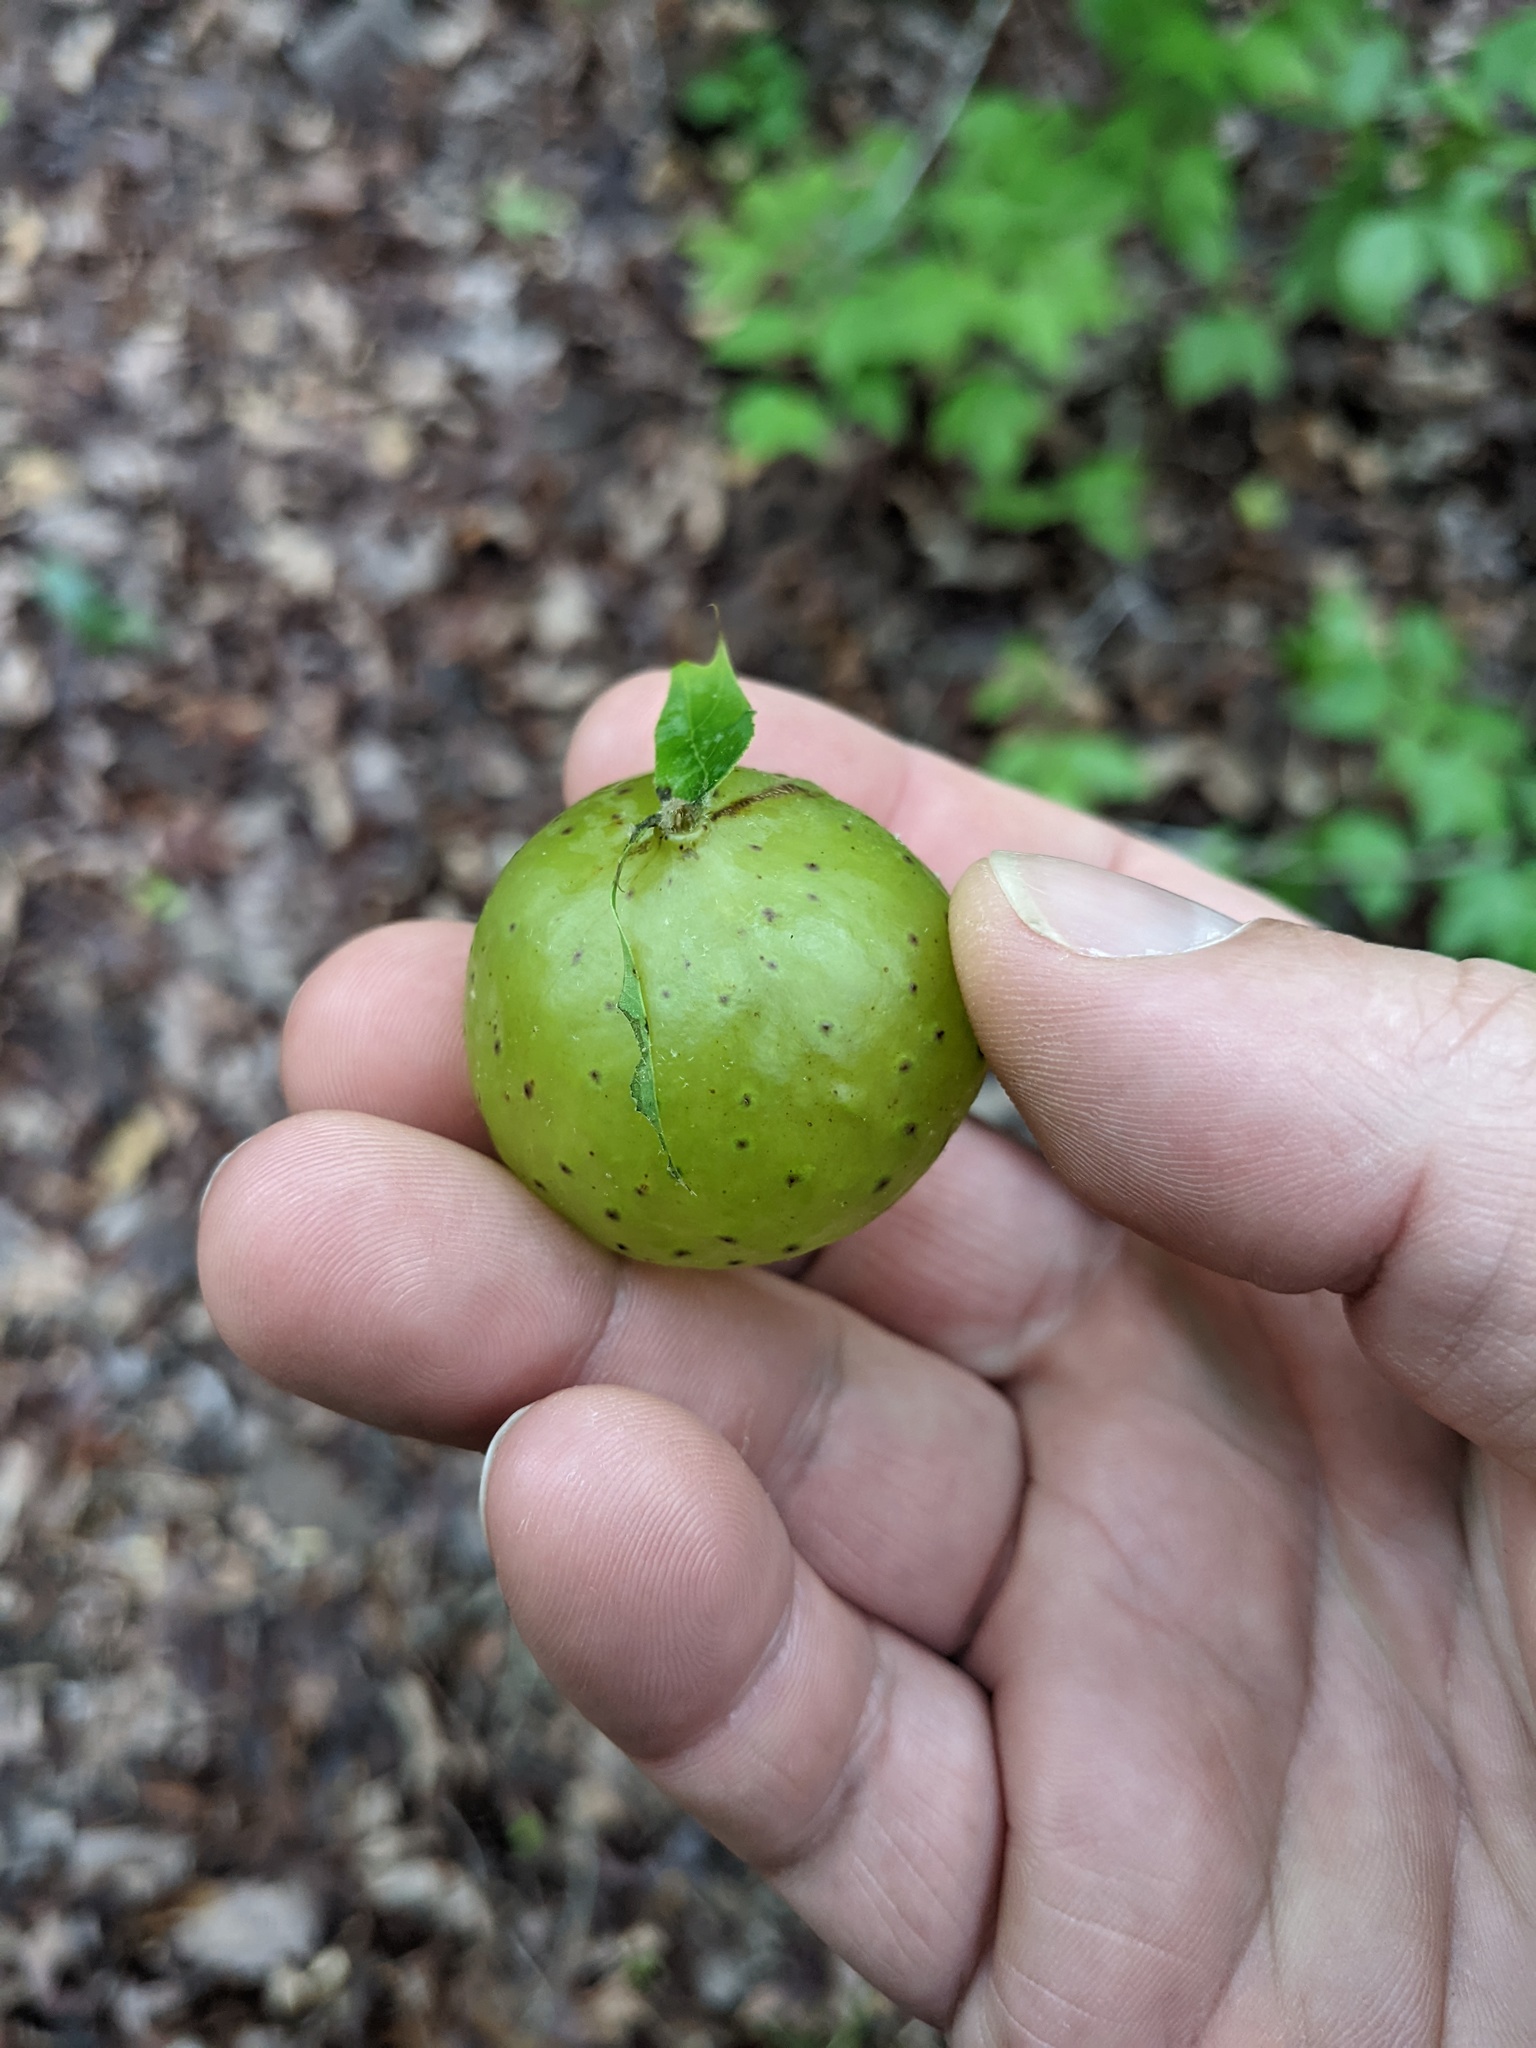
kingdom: Animalia
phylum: Arthropoda
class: Insecta
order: Hymenoptera
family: Cynipidae
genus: Amphibolips
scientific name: Amphibolips
